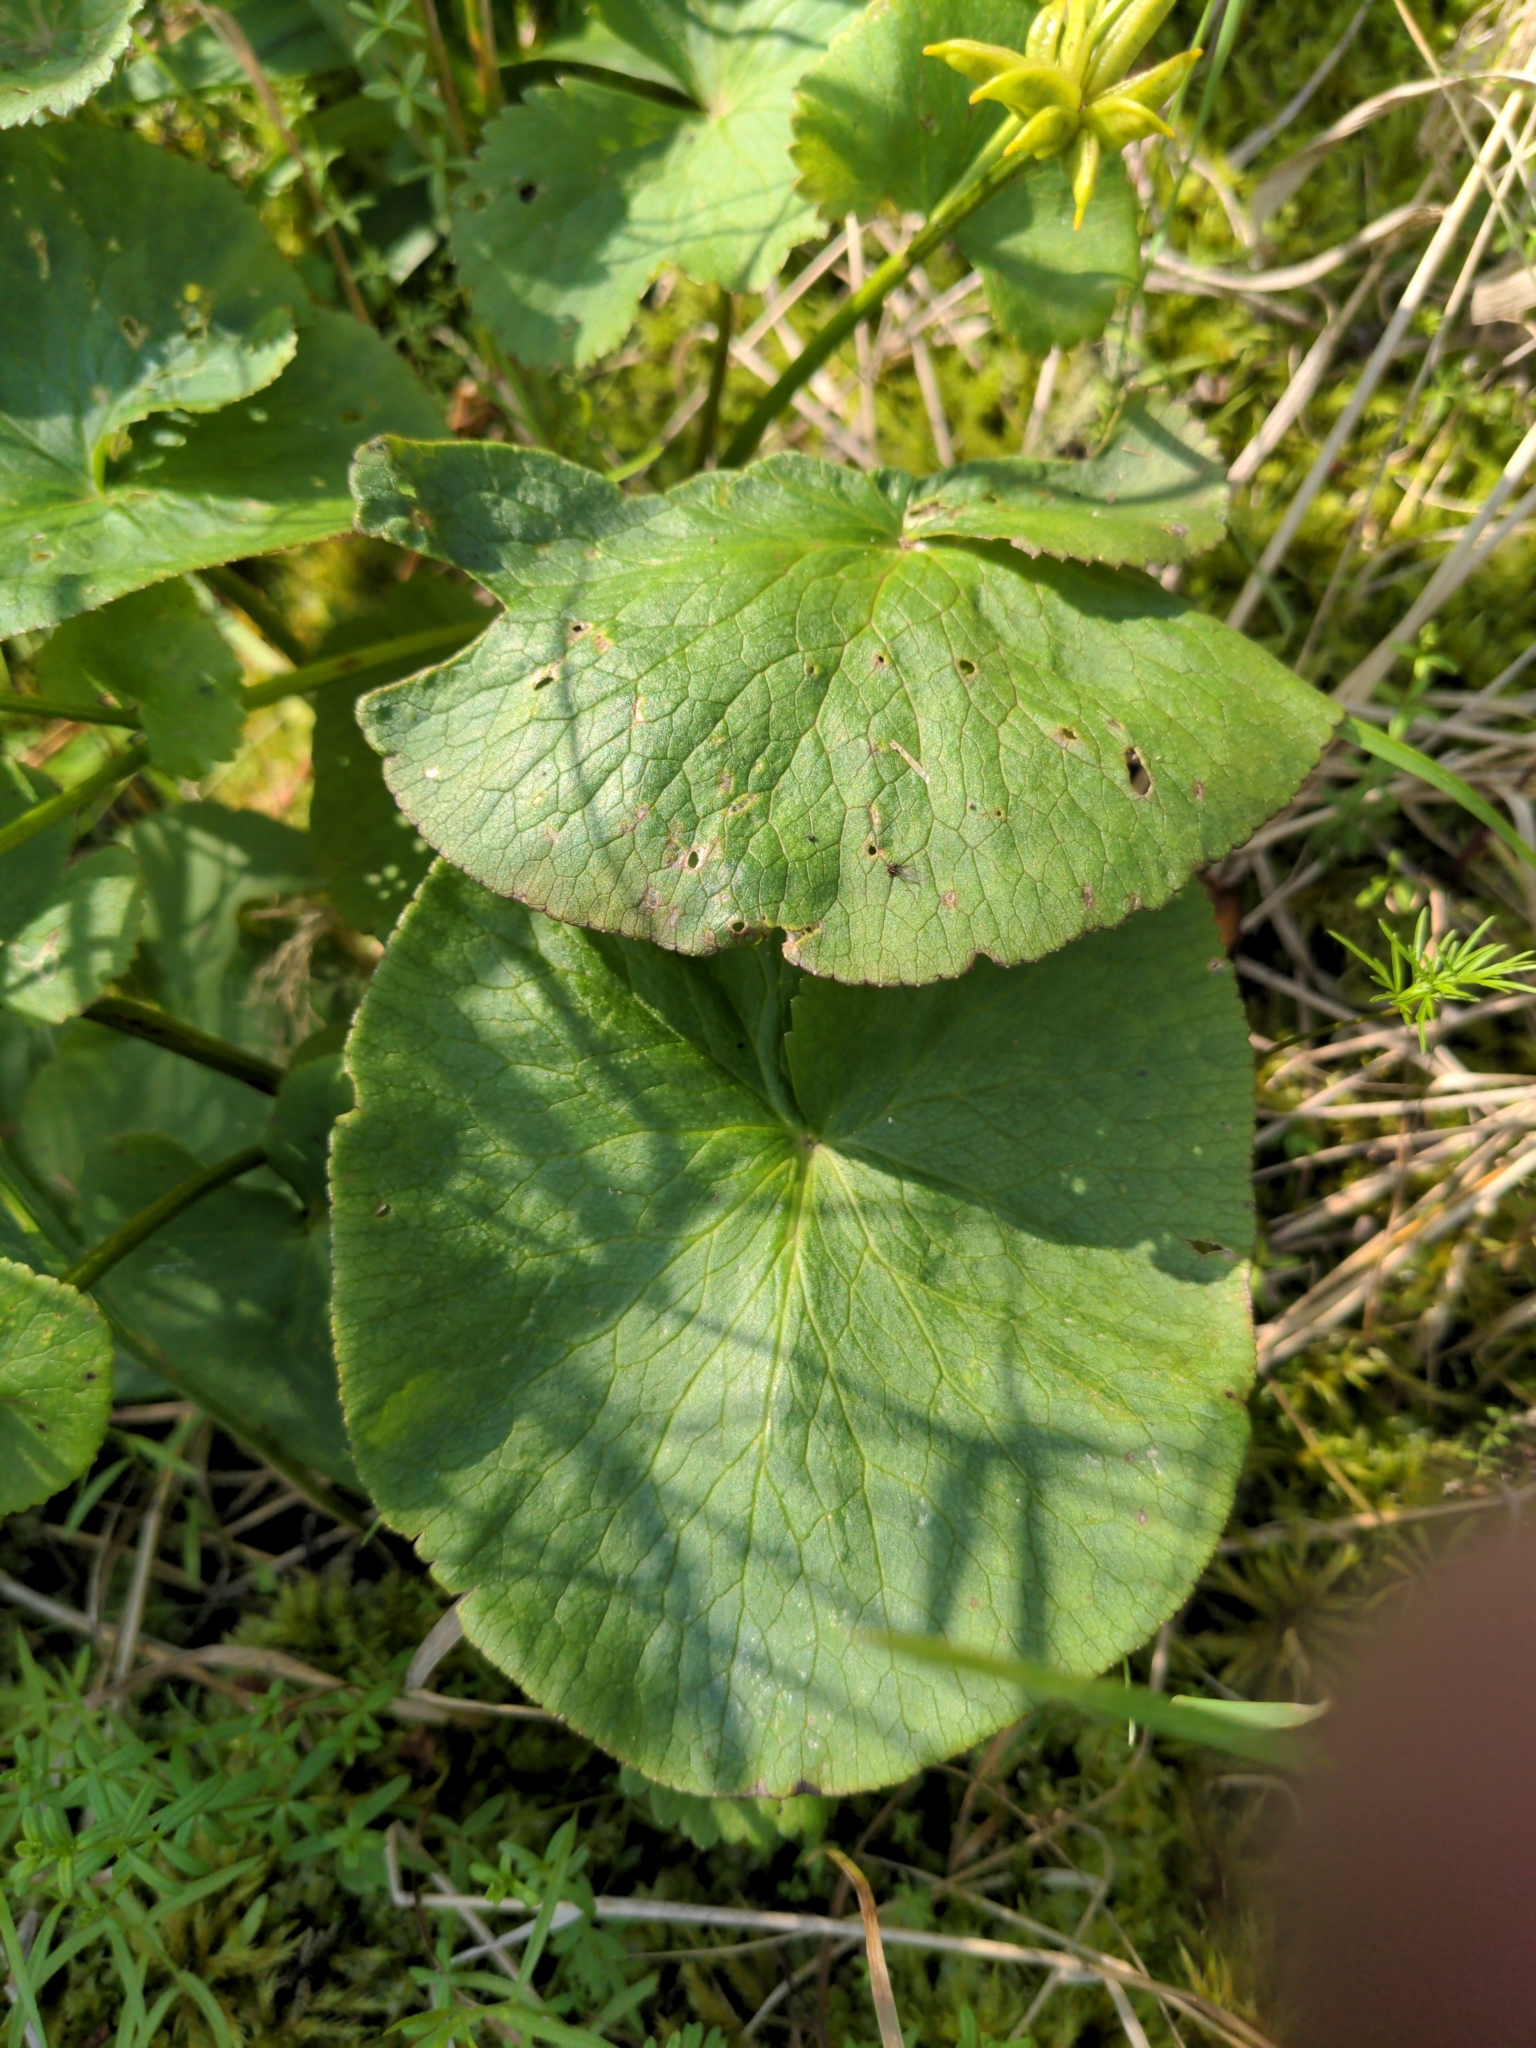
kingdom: Plantae
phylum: Tracheophyta
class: Magnoliopsida
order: Ranunculales
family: Ranunculaceae
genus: Caltha
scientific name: Caltha palustris
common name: Marsh marigold
